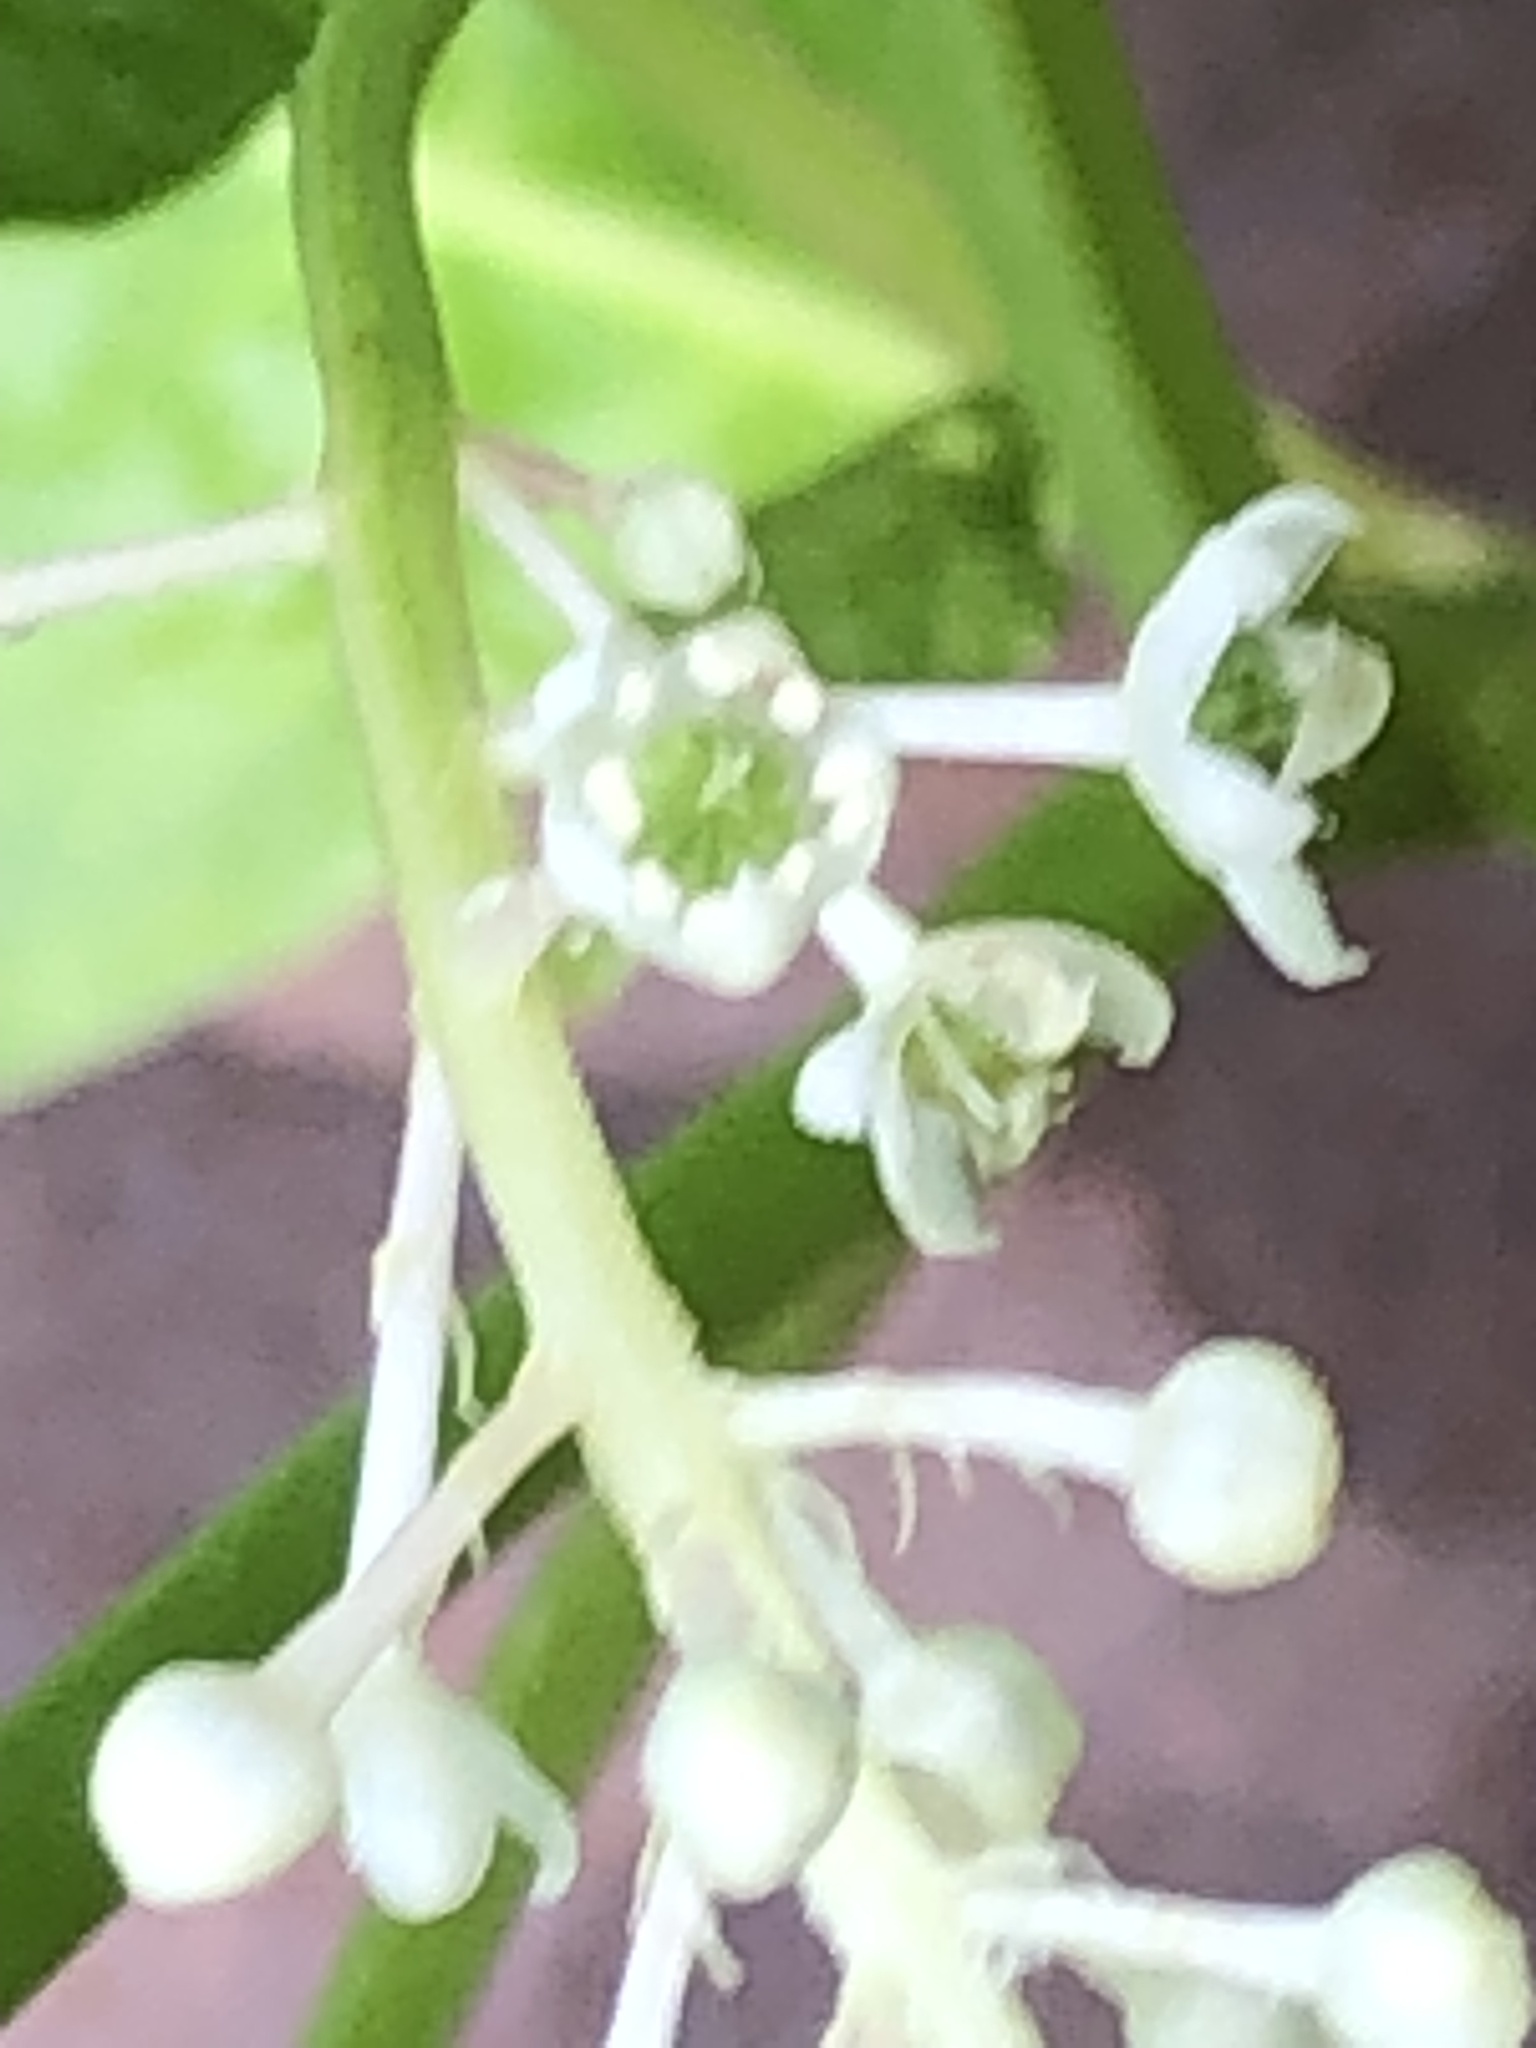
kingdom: Plantae
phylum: Tracheophyta
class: Magnoliopsida
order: Caryophyllales
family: Phytolaccaceae
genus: Phytolacca
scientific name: Phytolacca americana
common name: American pokeweed
